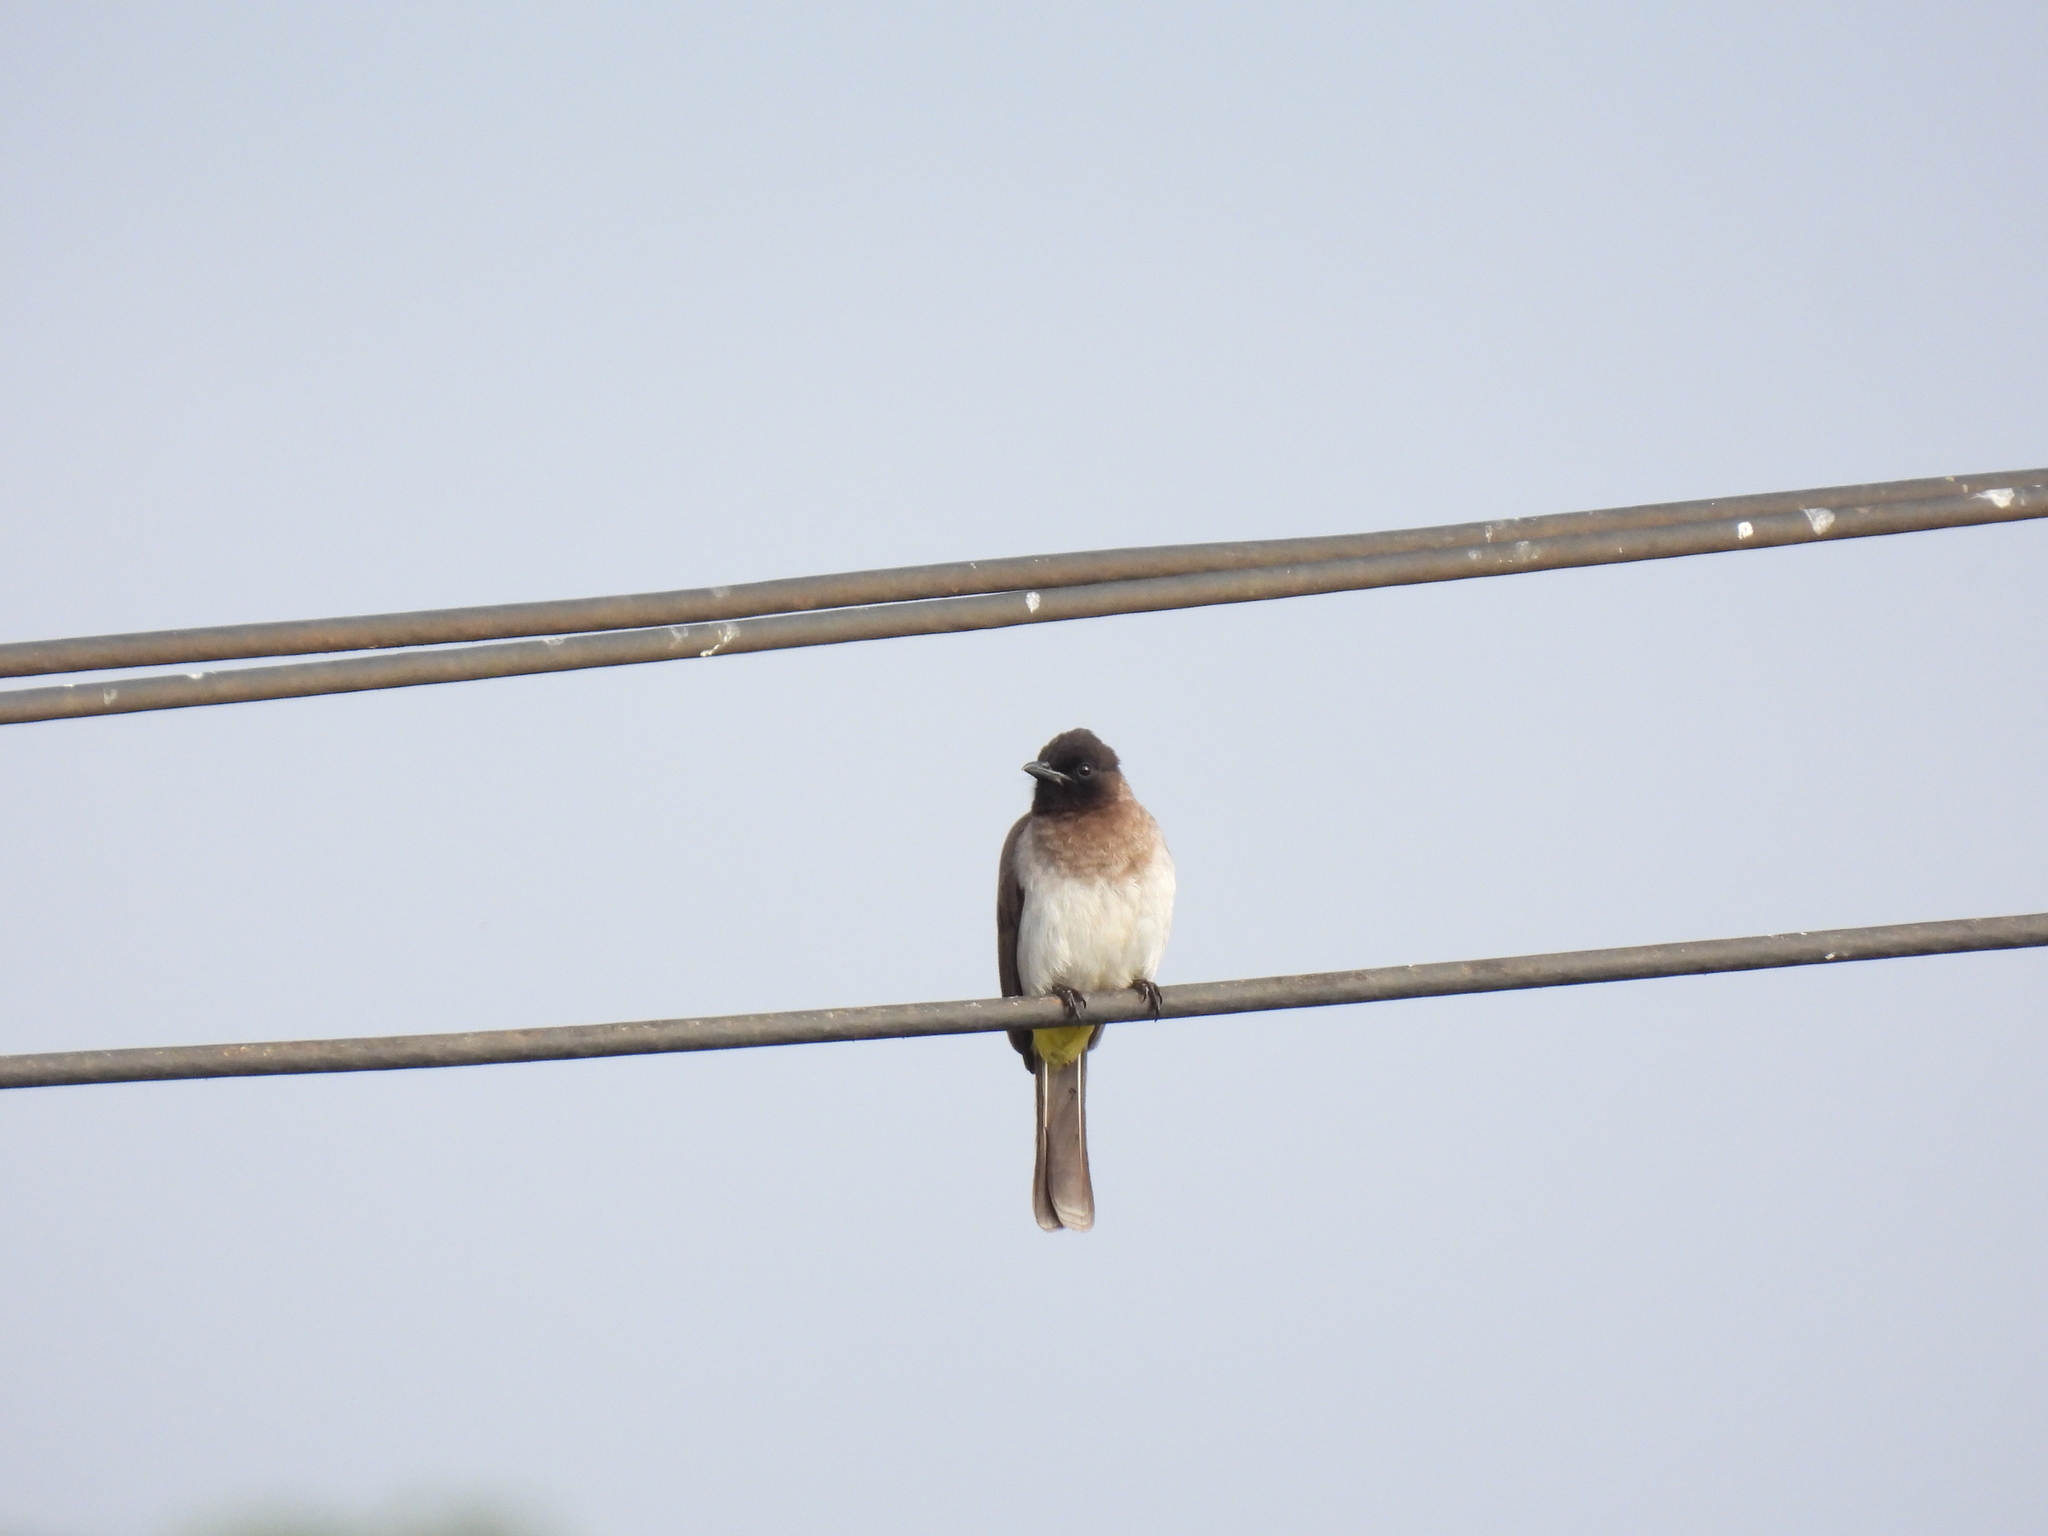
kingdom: Animalia
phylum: Chordata
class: Aves
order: Passeriformes
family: Pycnonotidae
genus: Pycnonotus
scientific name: Pycnonotus barbatus
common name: Common bulbul
